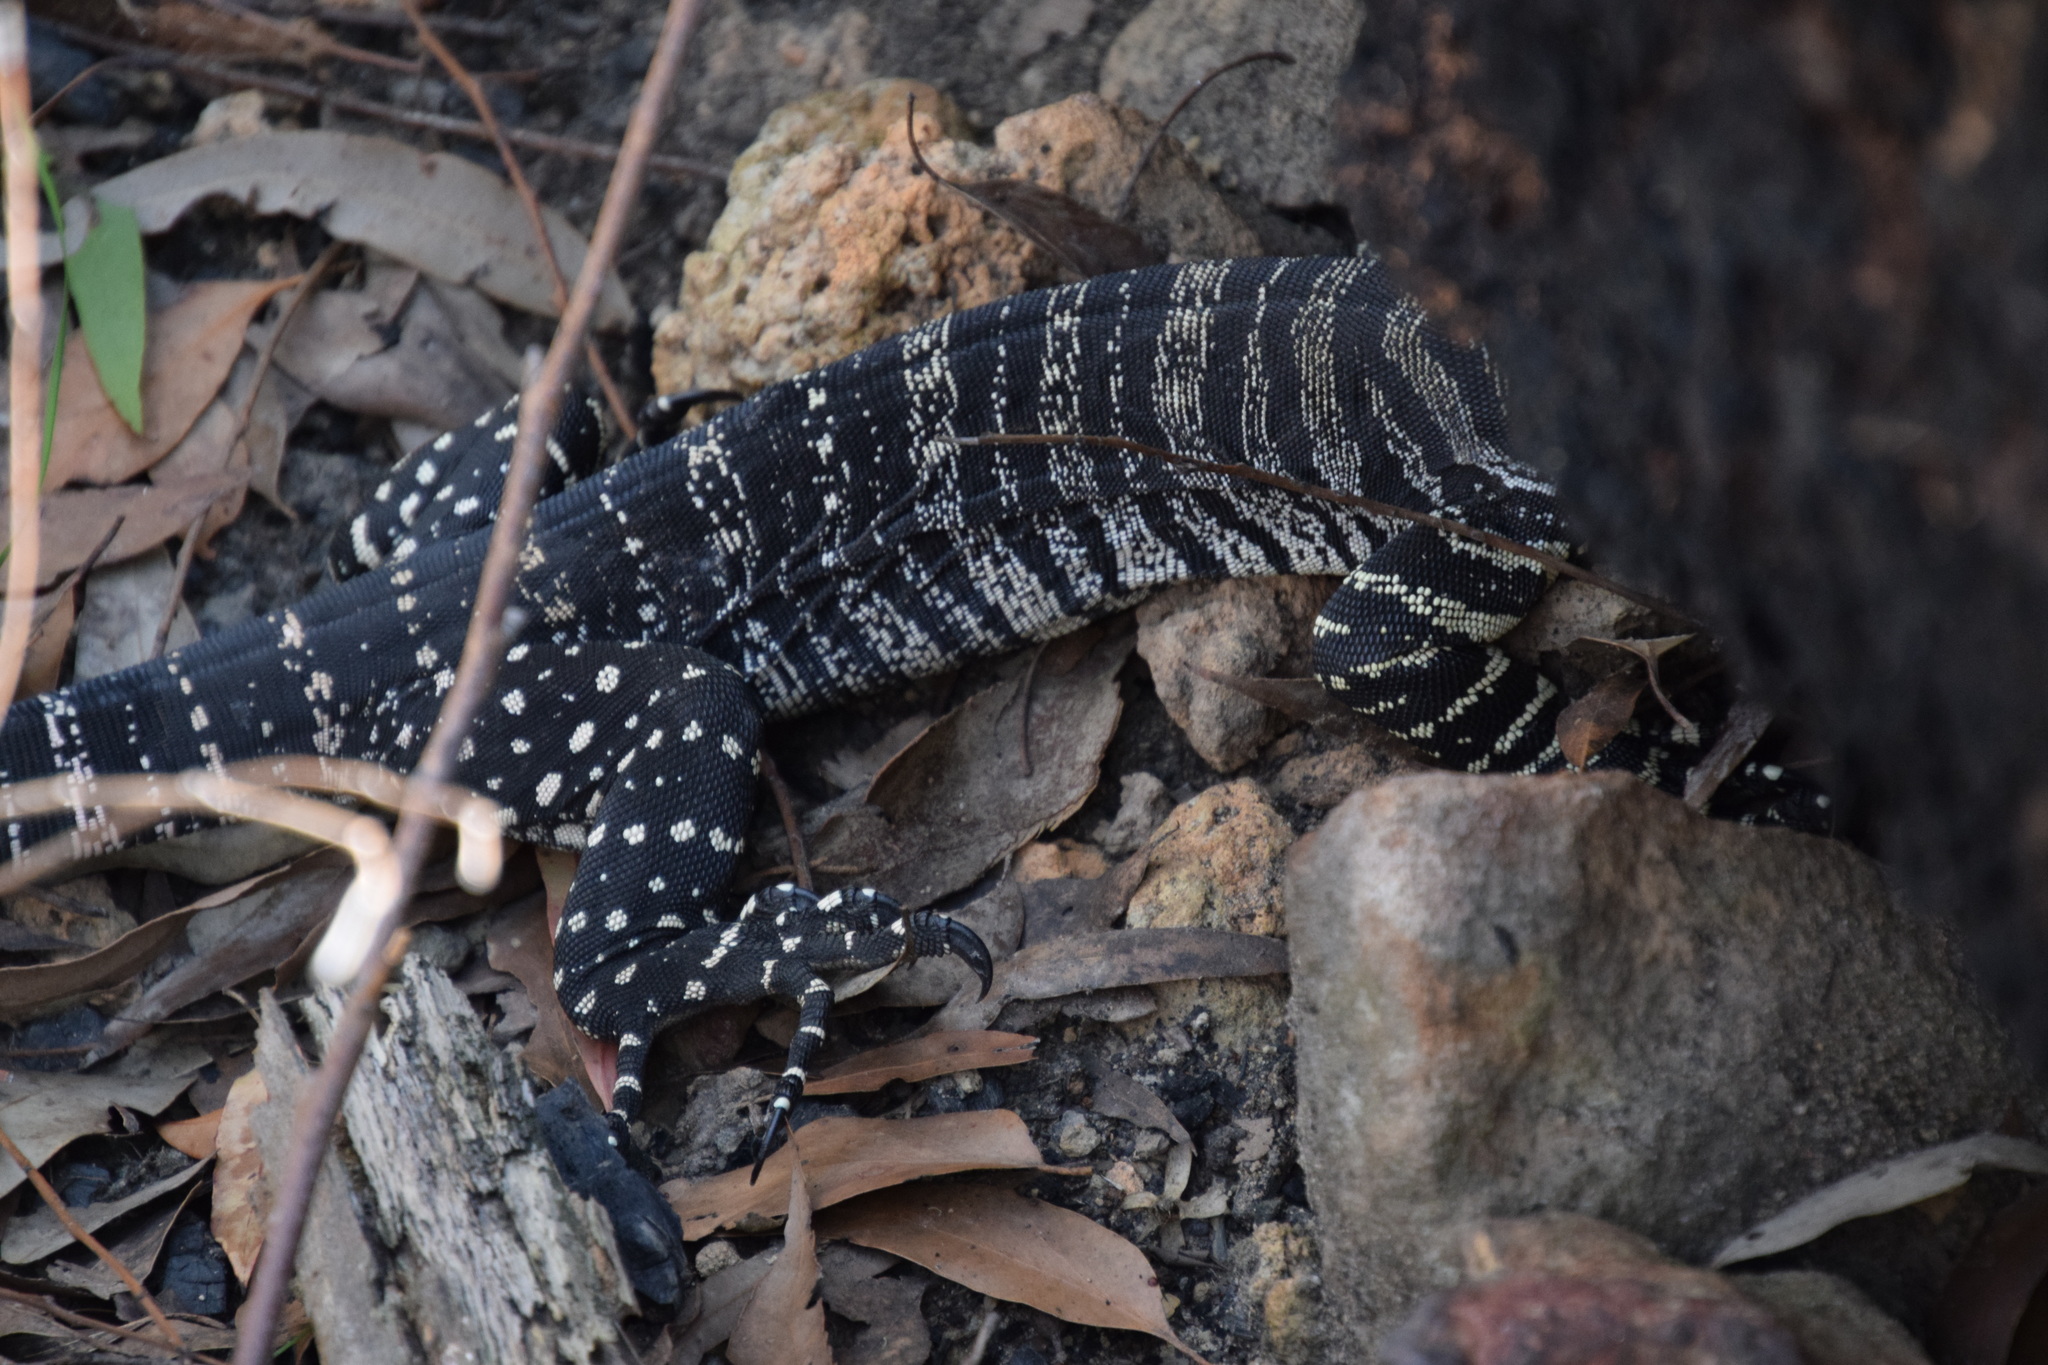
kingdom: Animalia
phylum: Chordata
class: Squamata
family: Varanidae
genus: Varanus
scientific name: Varanus varius
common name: Lace monitor
